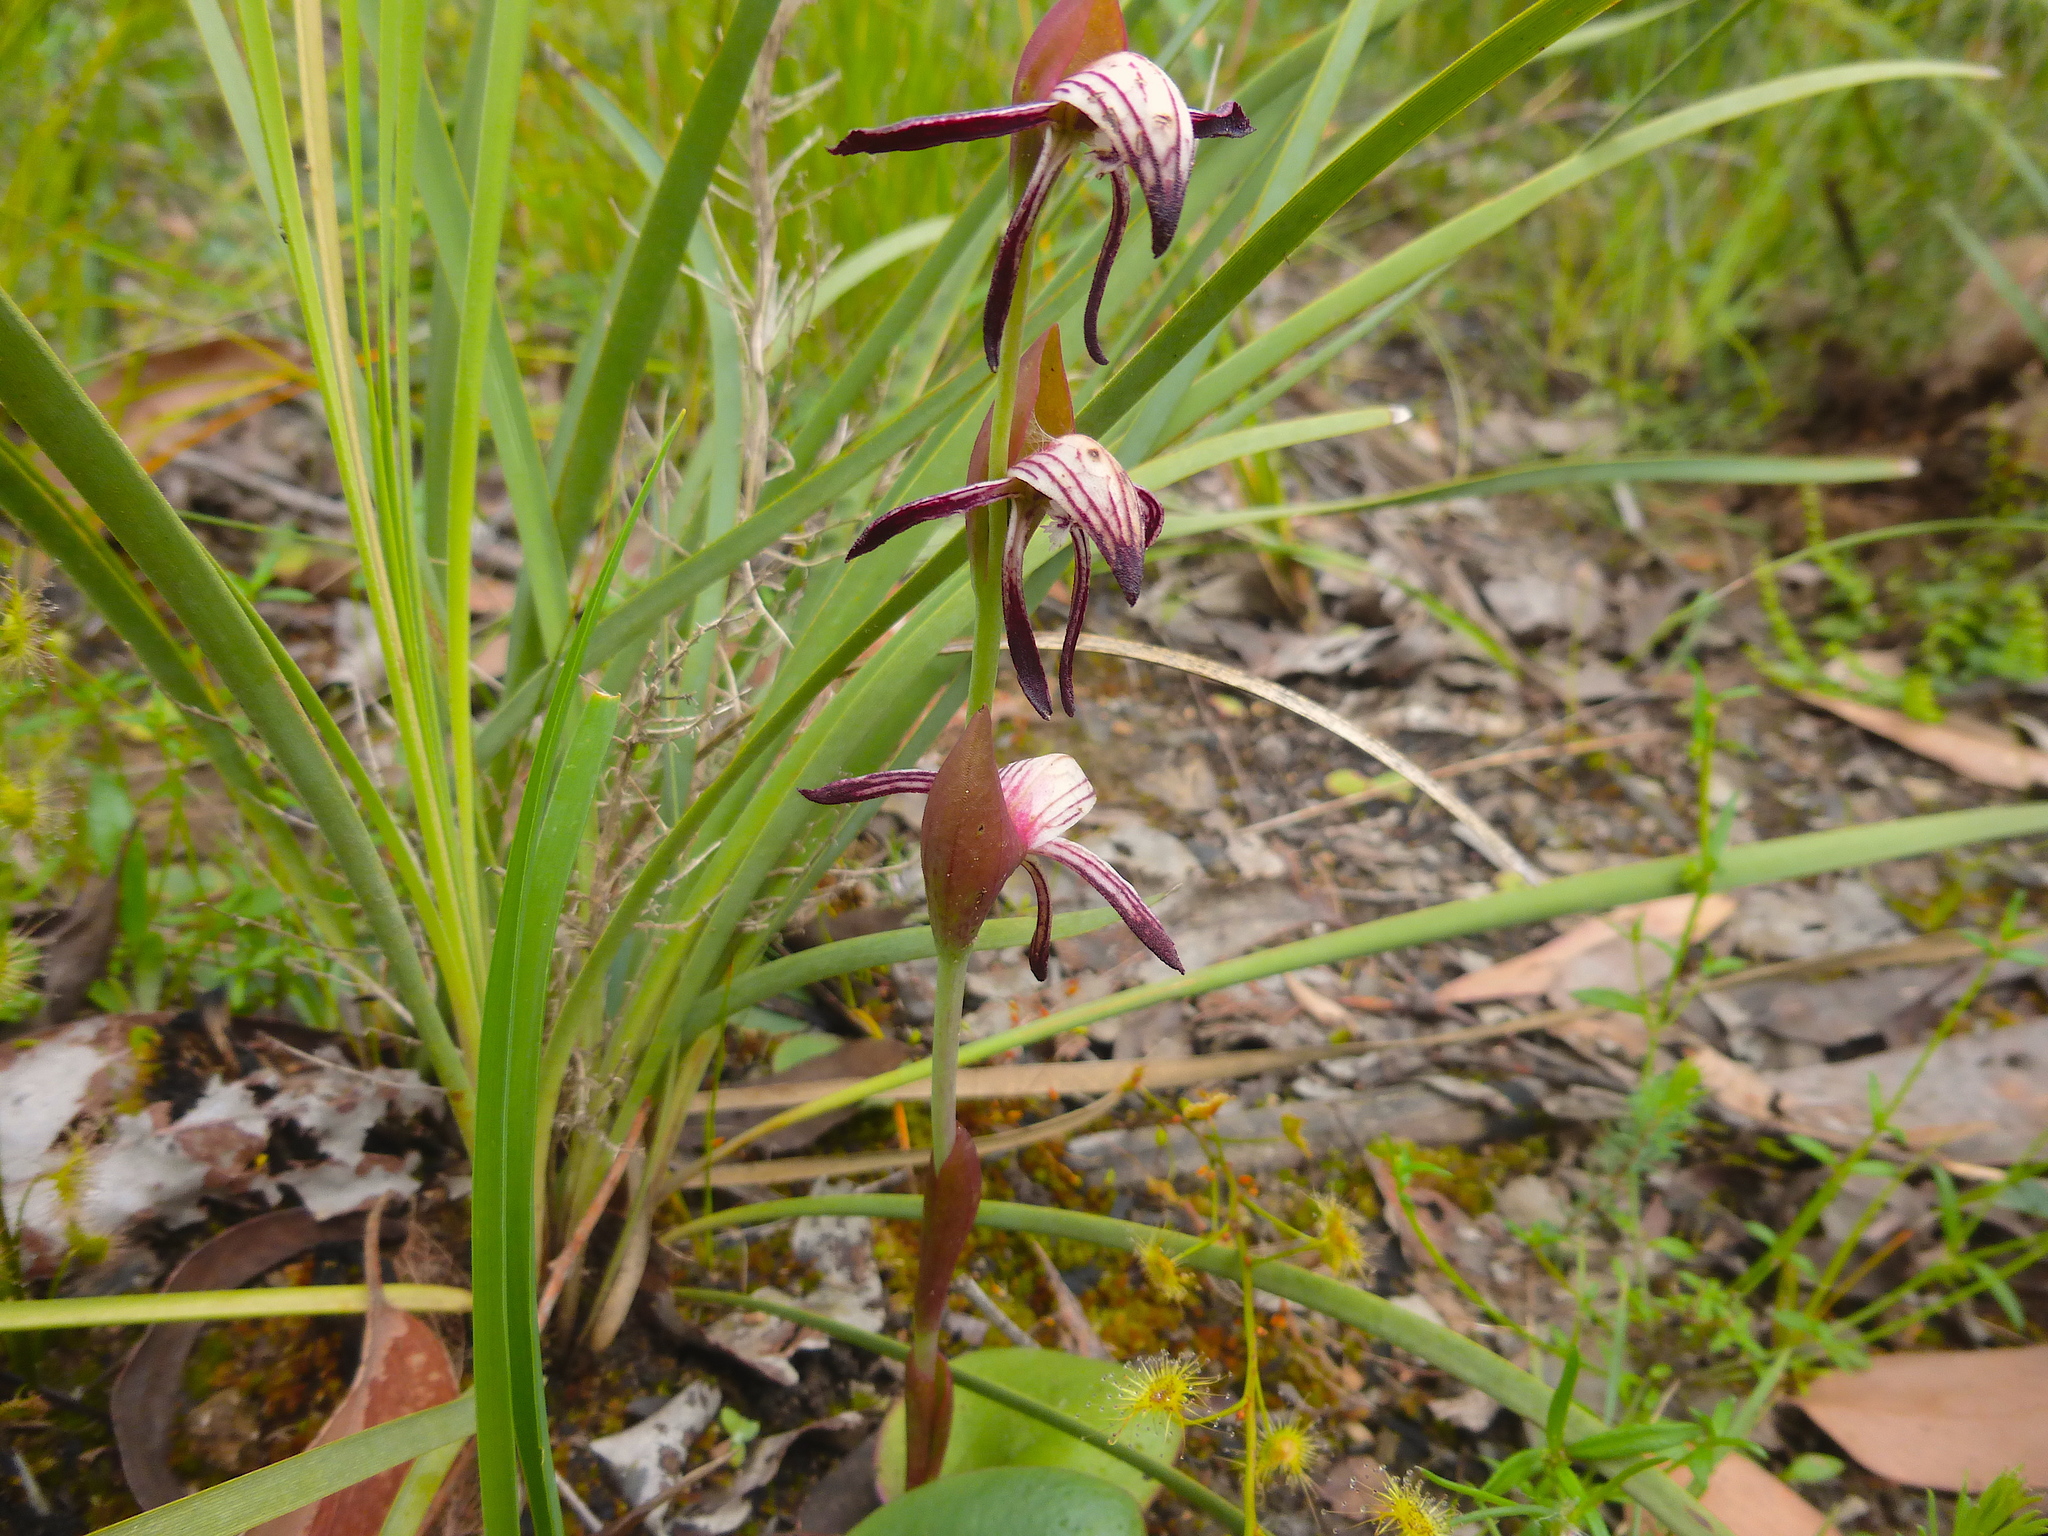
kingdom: Plantae
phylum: Tracheophyta
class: Liliopsida
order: Asparagales
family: Orchidaceae
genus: Pyrorchis
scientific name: Pyrorchis nigricans
